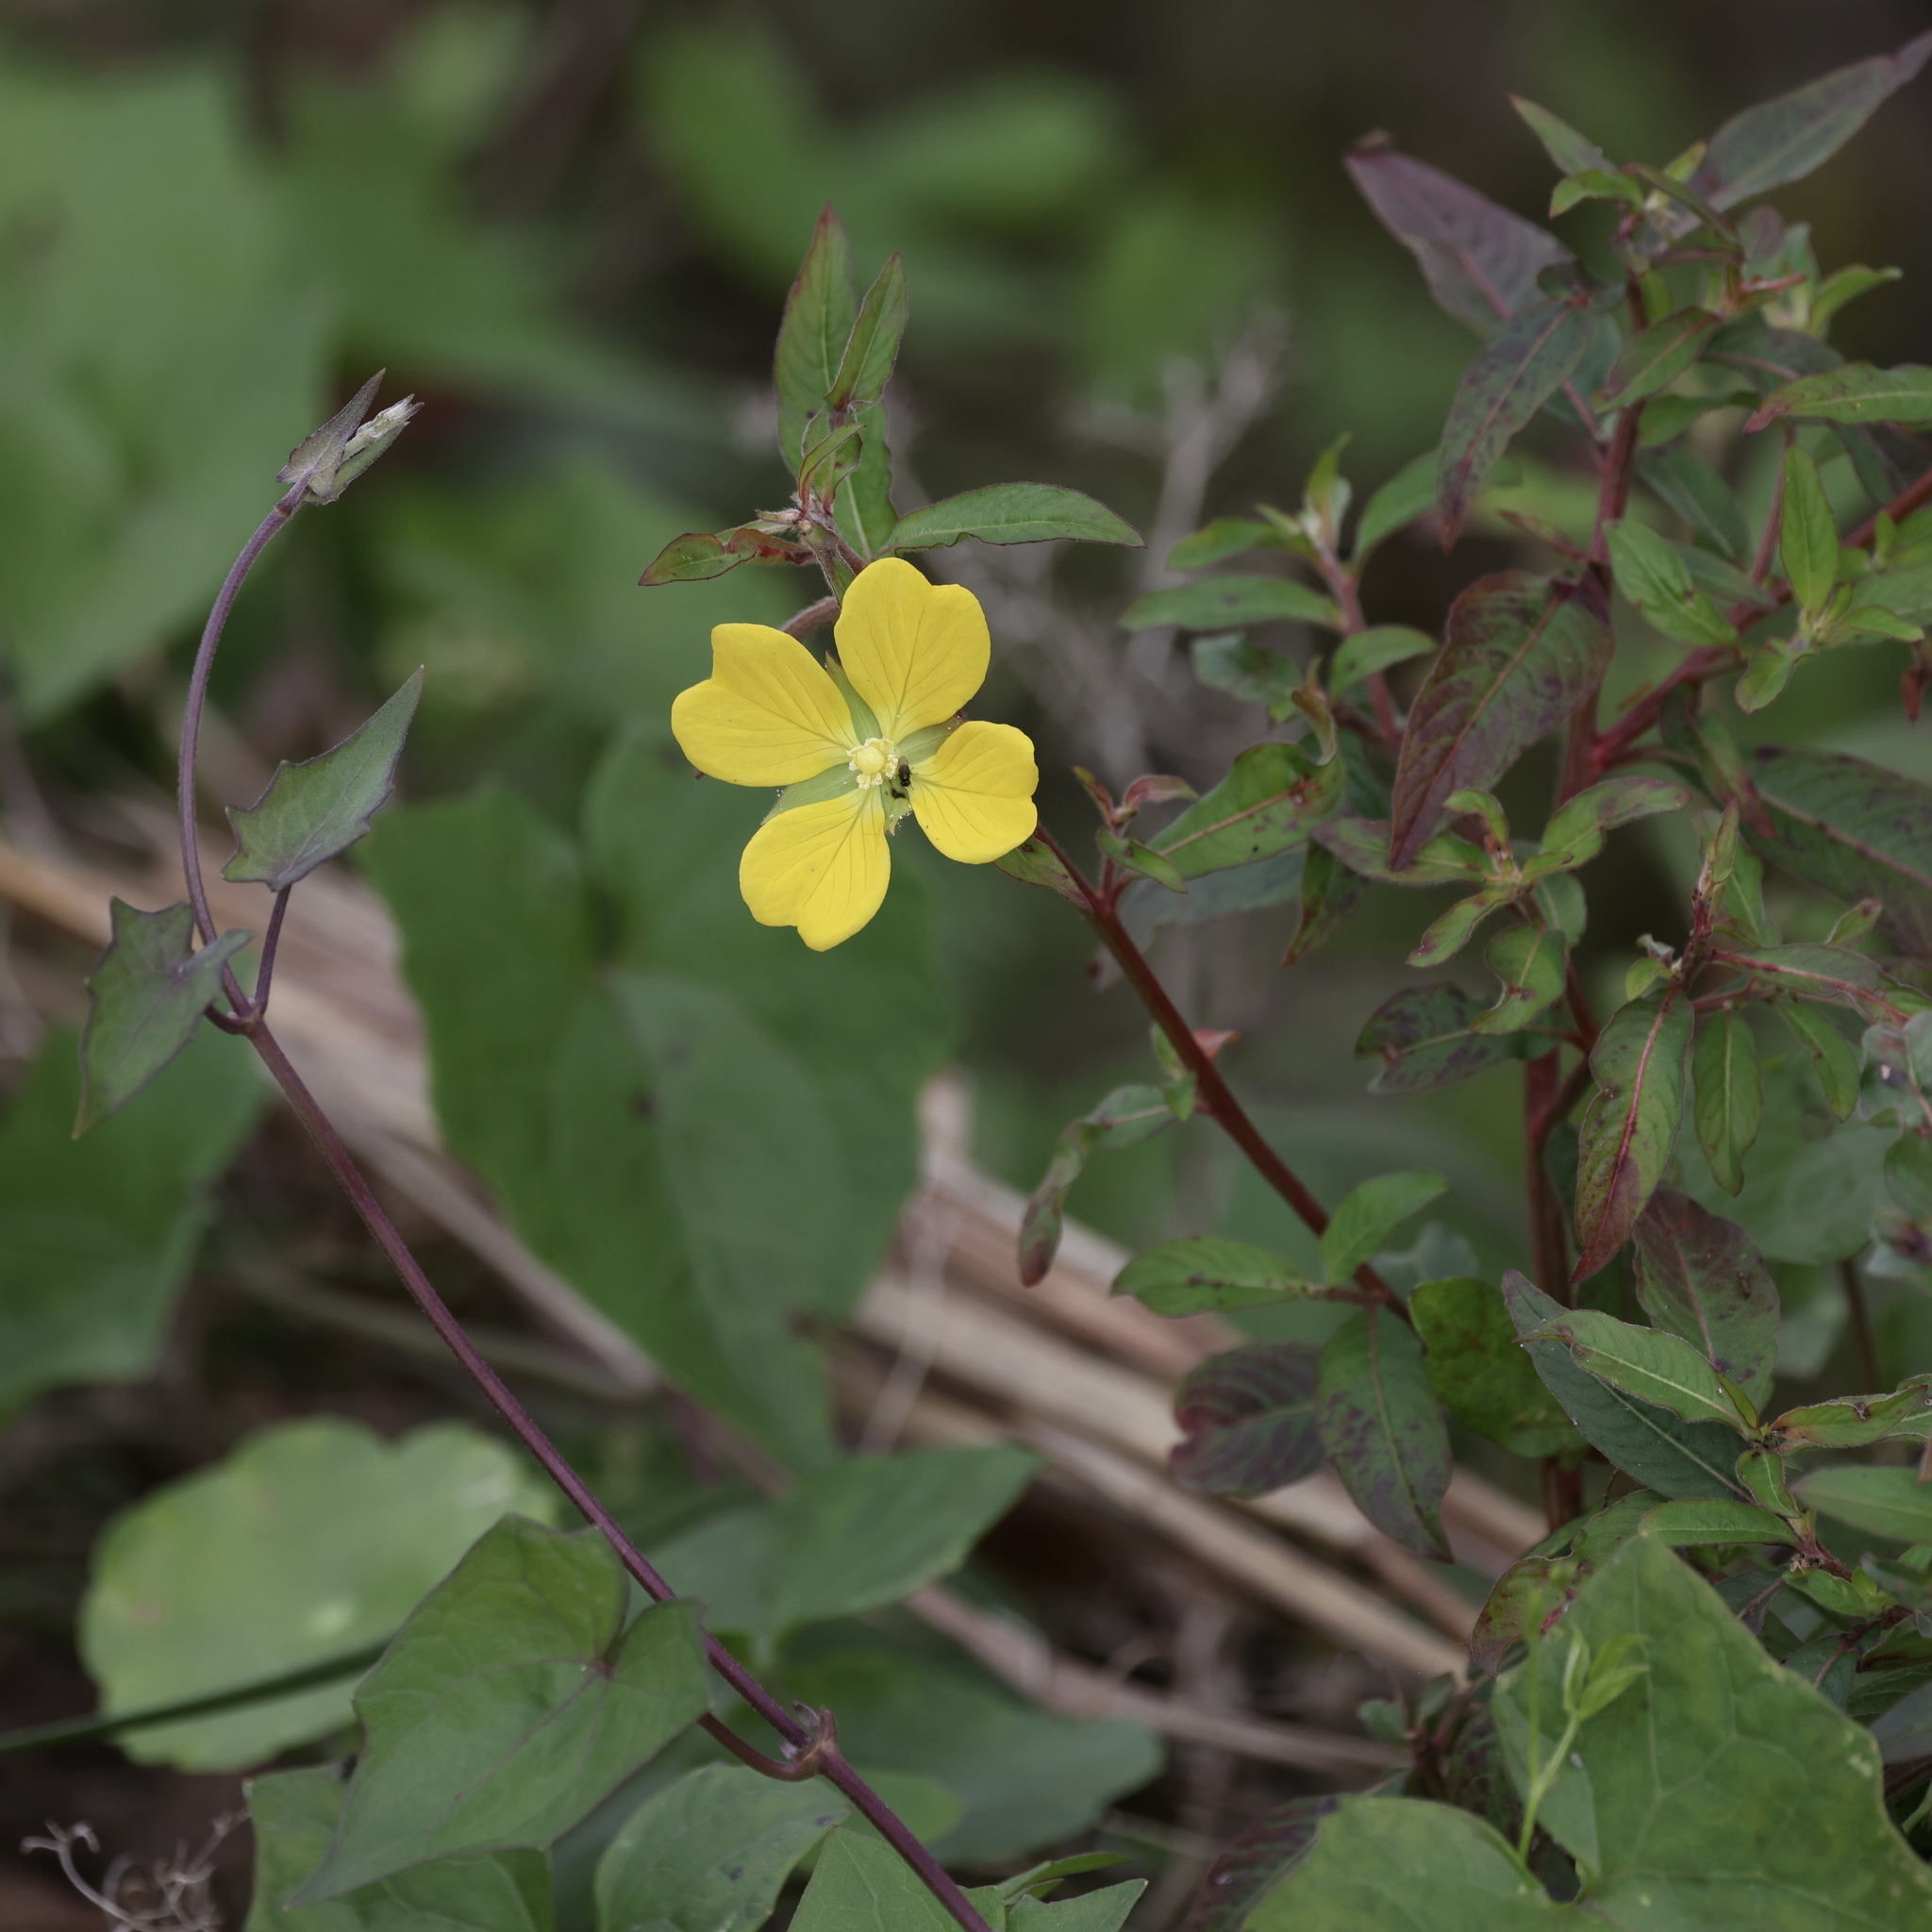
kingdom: Plantae
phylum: Tracheophyta
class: Magnoliopsida
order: Myrtales
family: Onagraceae
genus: Ludwigia
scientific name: Ludwigia octovalvis
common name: Water-primrose
